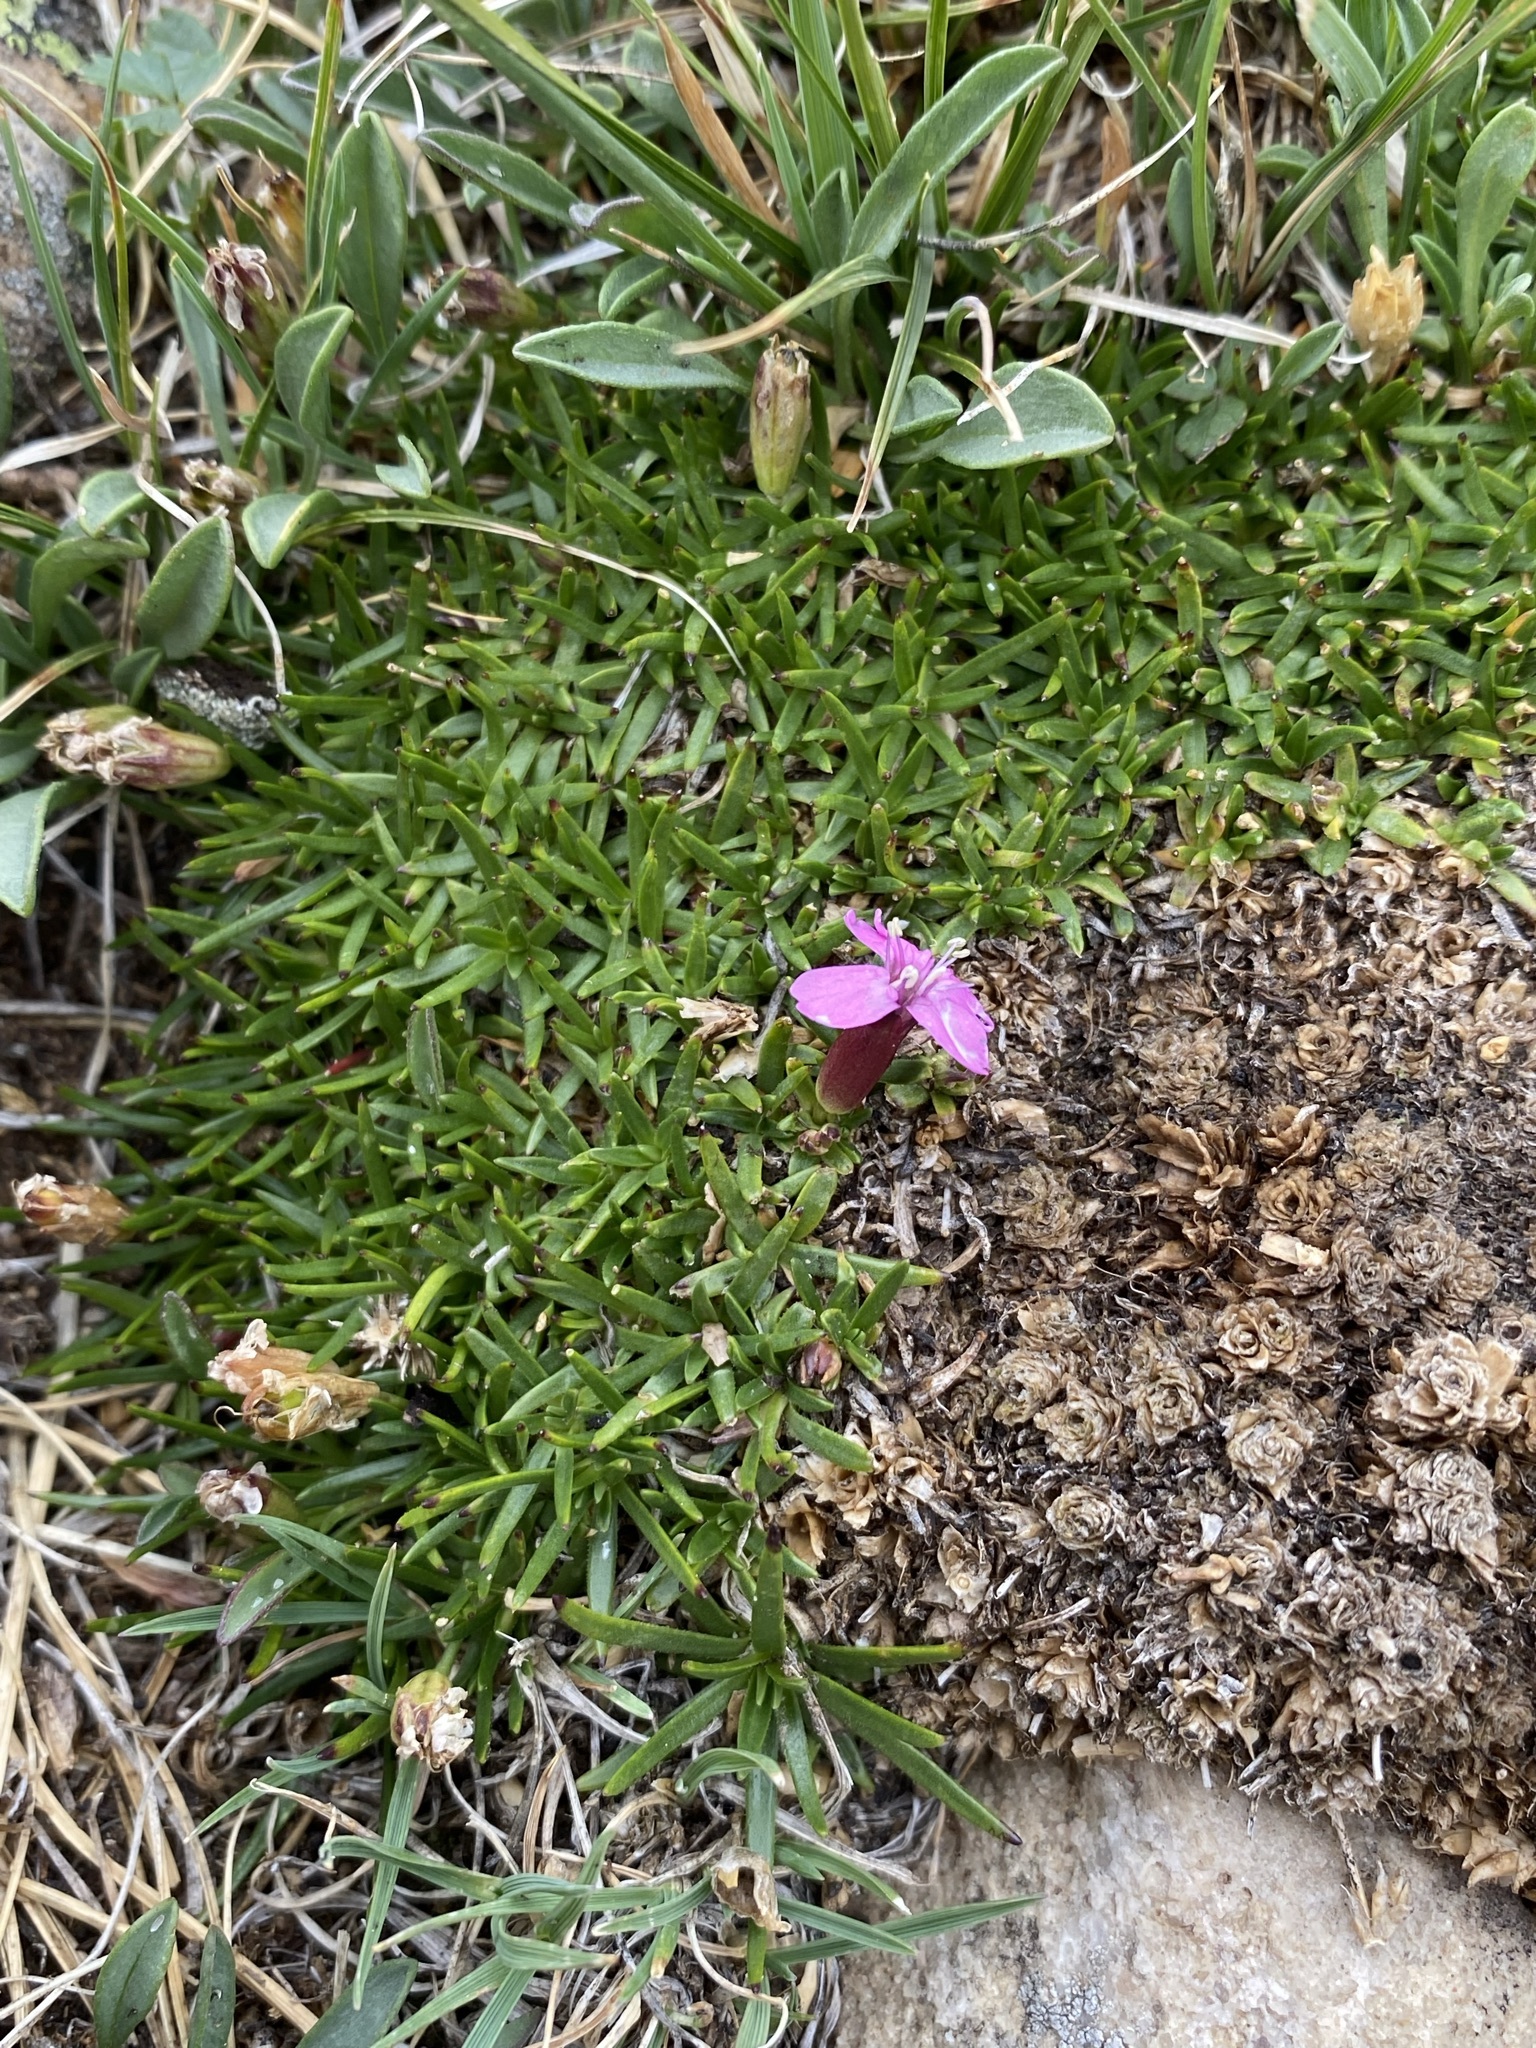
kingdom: Plantae
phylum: Tracheophyta
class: Magnoliopsida
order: Caryophyllales
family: Caryophyllaceae
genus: Silene
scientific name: Silene acaulis
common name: Moss campion
